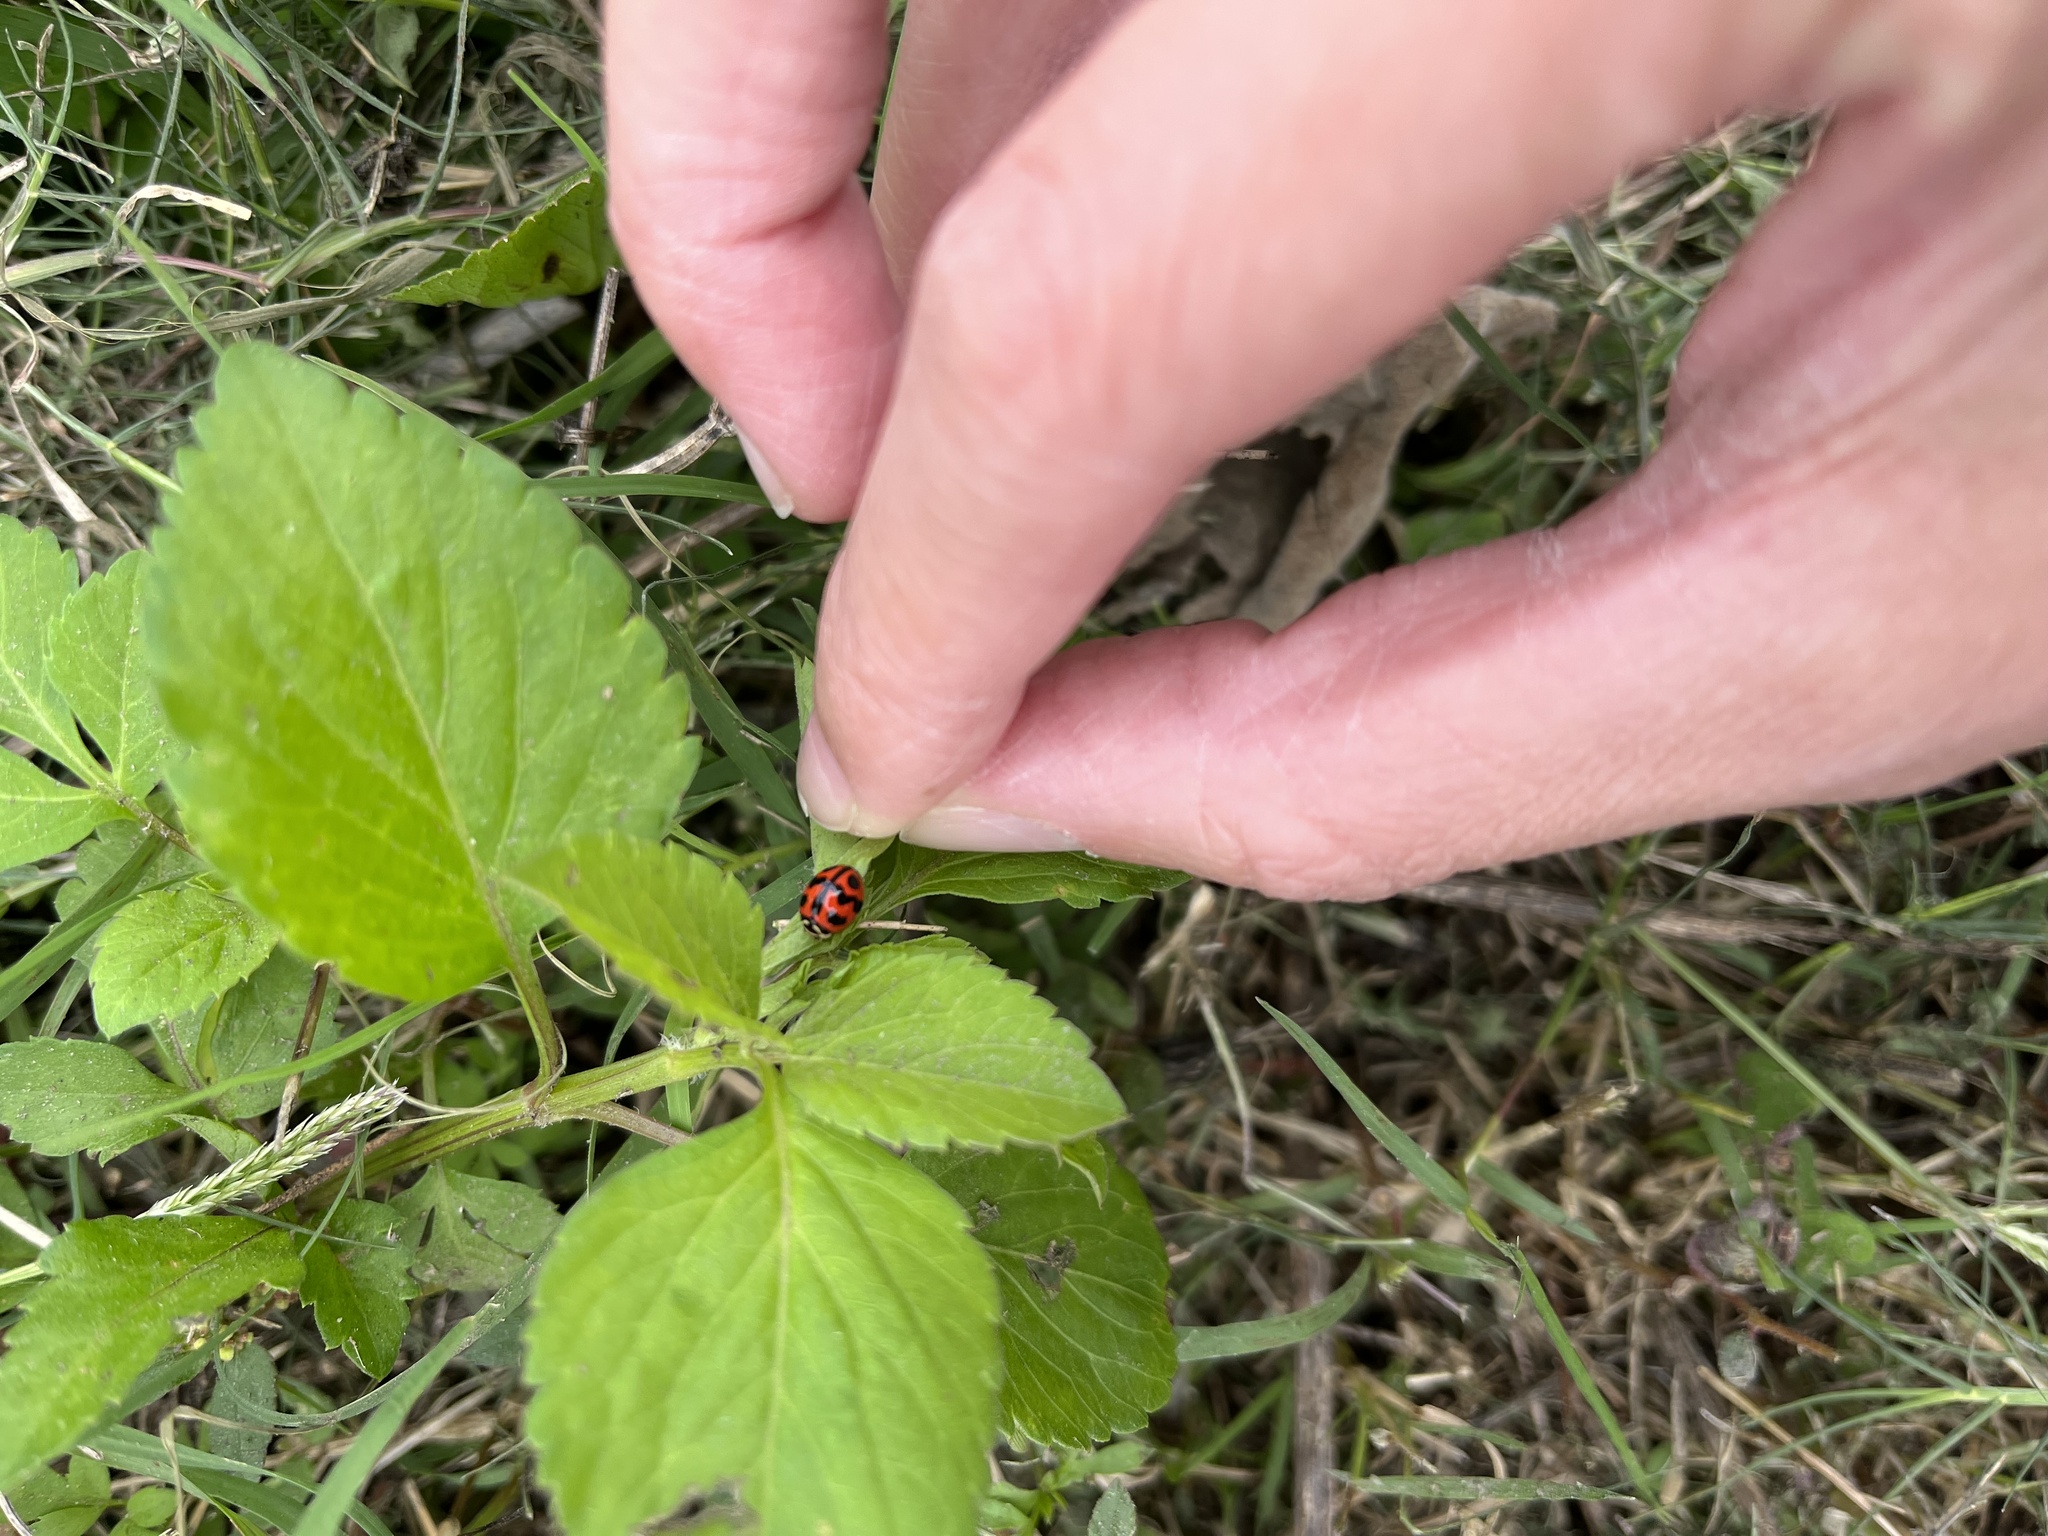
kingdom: Animalia
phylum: Arthropoda
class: Insecta
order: Coleoptera
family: Coccinellidae
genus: Cheilomenes
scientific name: Cheilomenes sexmaculata
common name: Ladybird beetle
